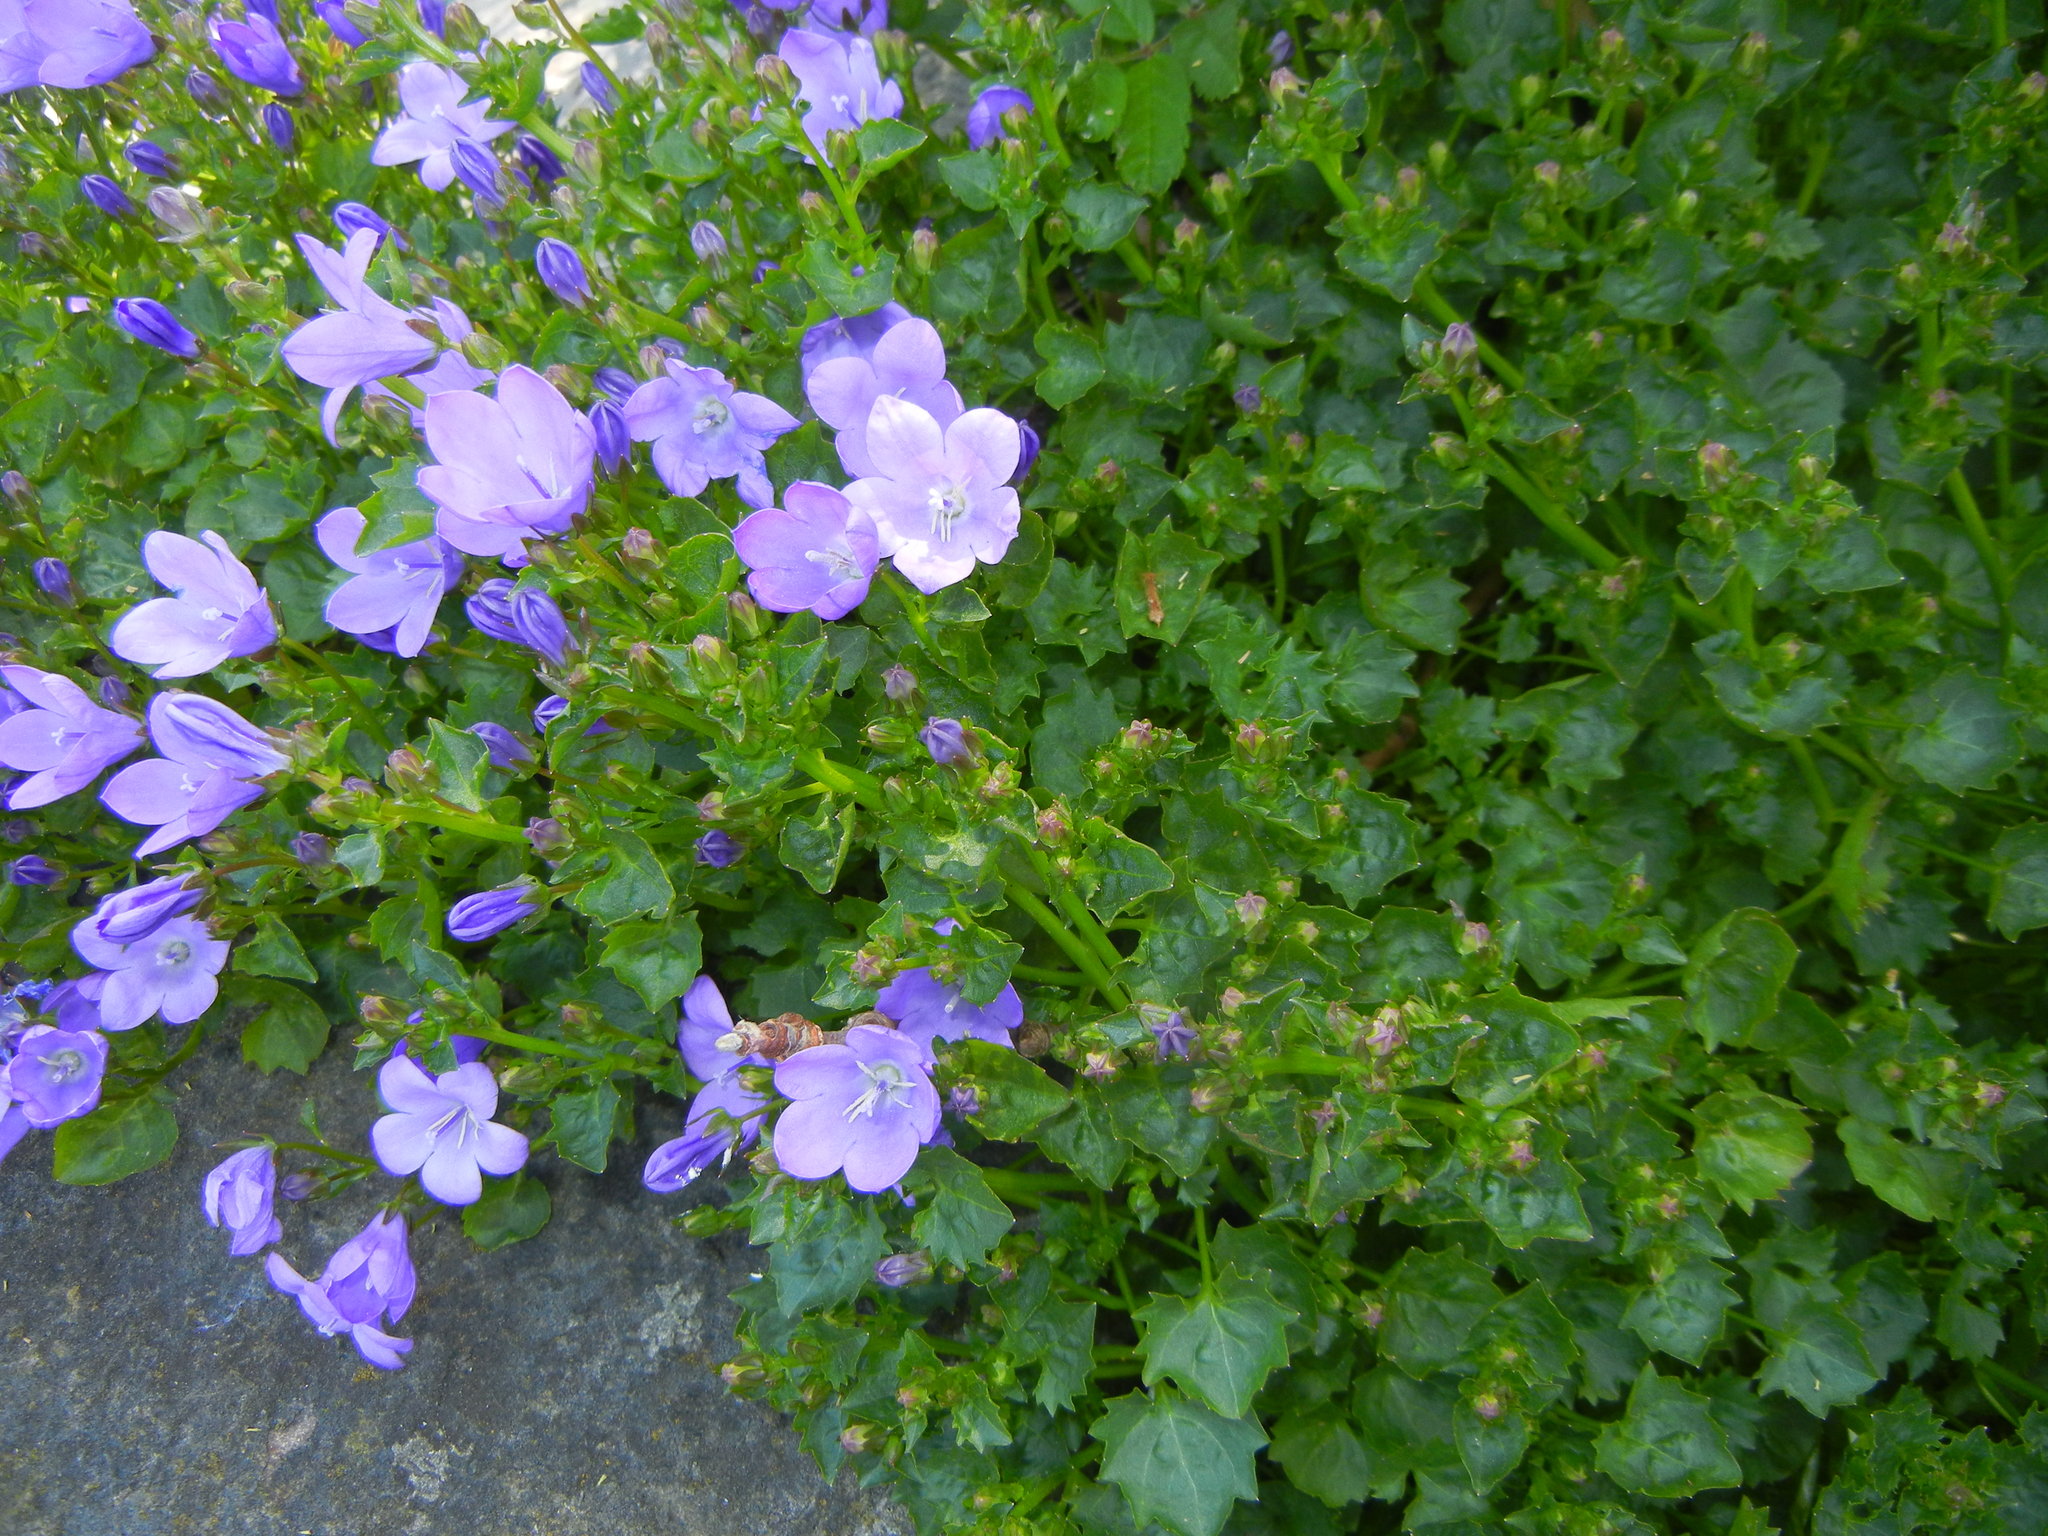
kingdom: Plantae
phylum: Tracheophyta
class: Magnoliopsida
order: Asterales
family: Campanulaceae
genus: Campanula
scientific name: Campanula portenschlagiana
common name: Adria bellflower
